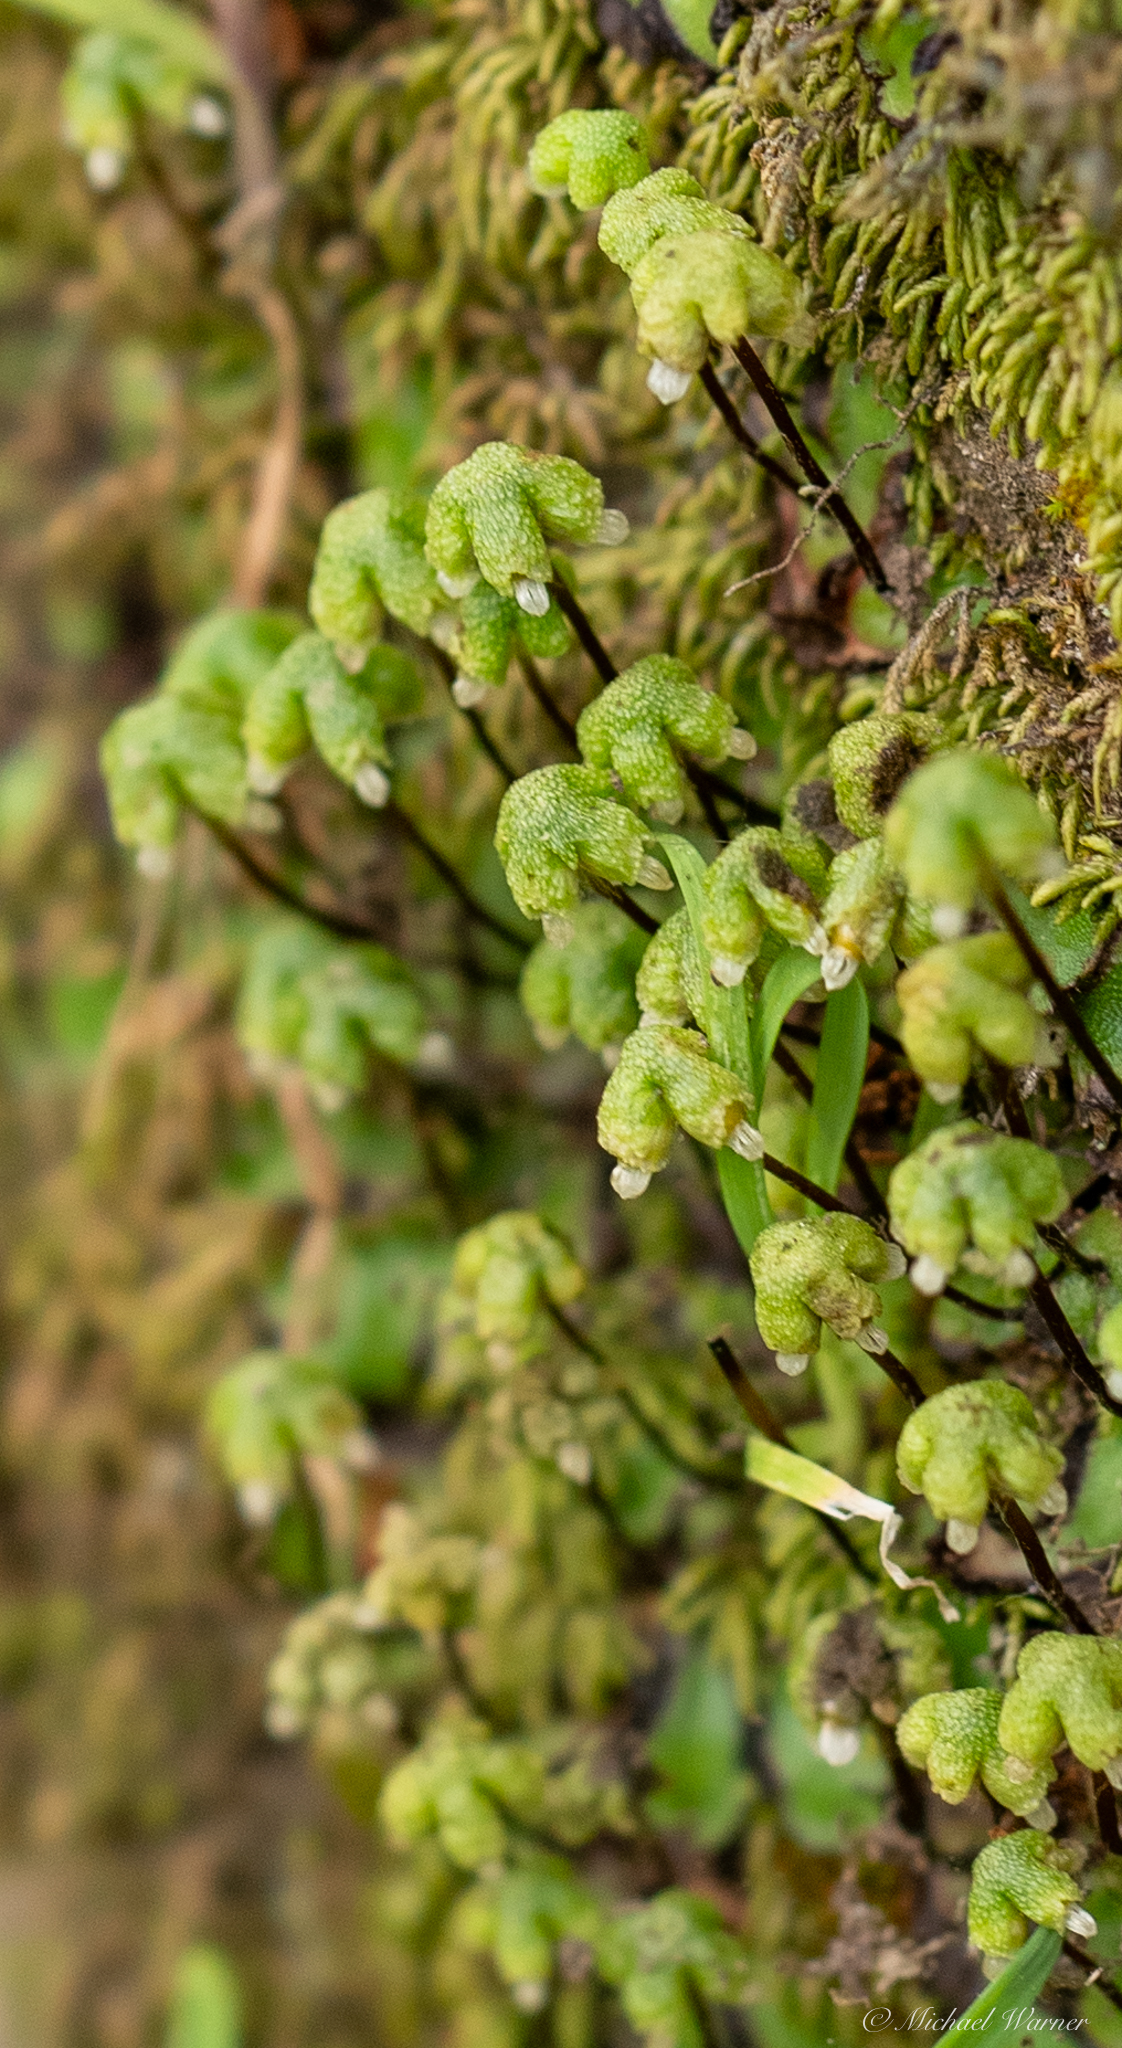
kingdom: Plantae
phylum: Marchantiophyta
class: Marchantiopsida
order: Marchantiales
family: Aytoniaceae
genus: Asterella
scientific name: Asterella californica
